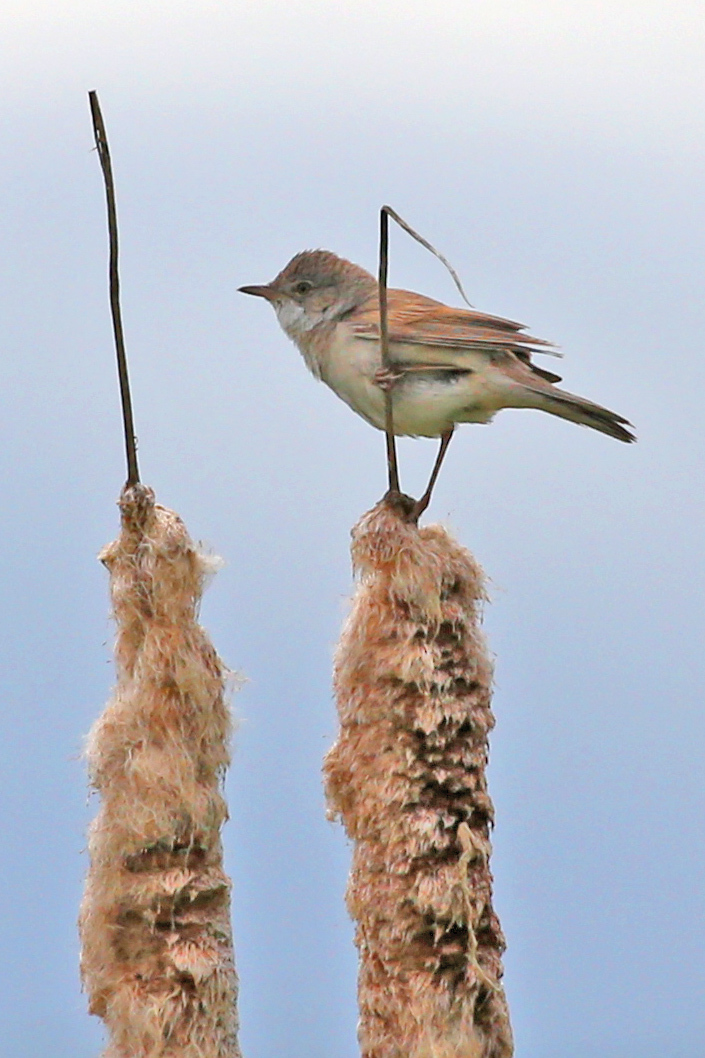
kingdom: Animalia
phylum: Chordata
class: Aves
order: Passeriformes
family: Sylviidae
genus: Sylvia
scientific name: Sylvia communis
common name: Common whitethroat
